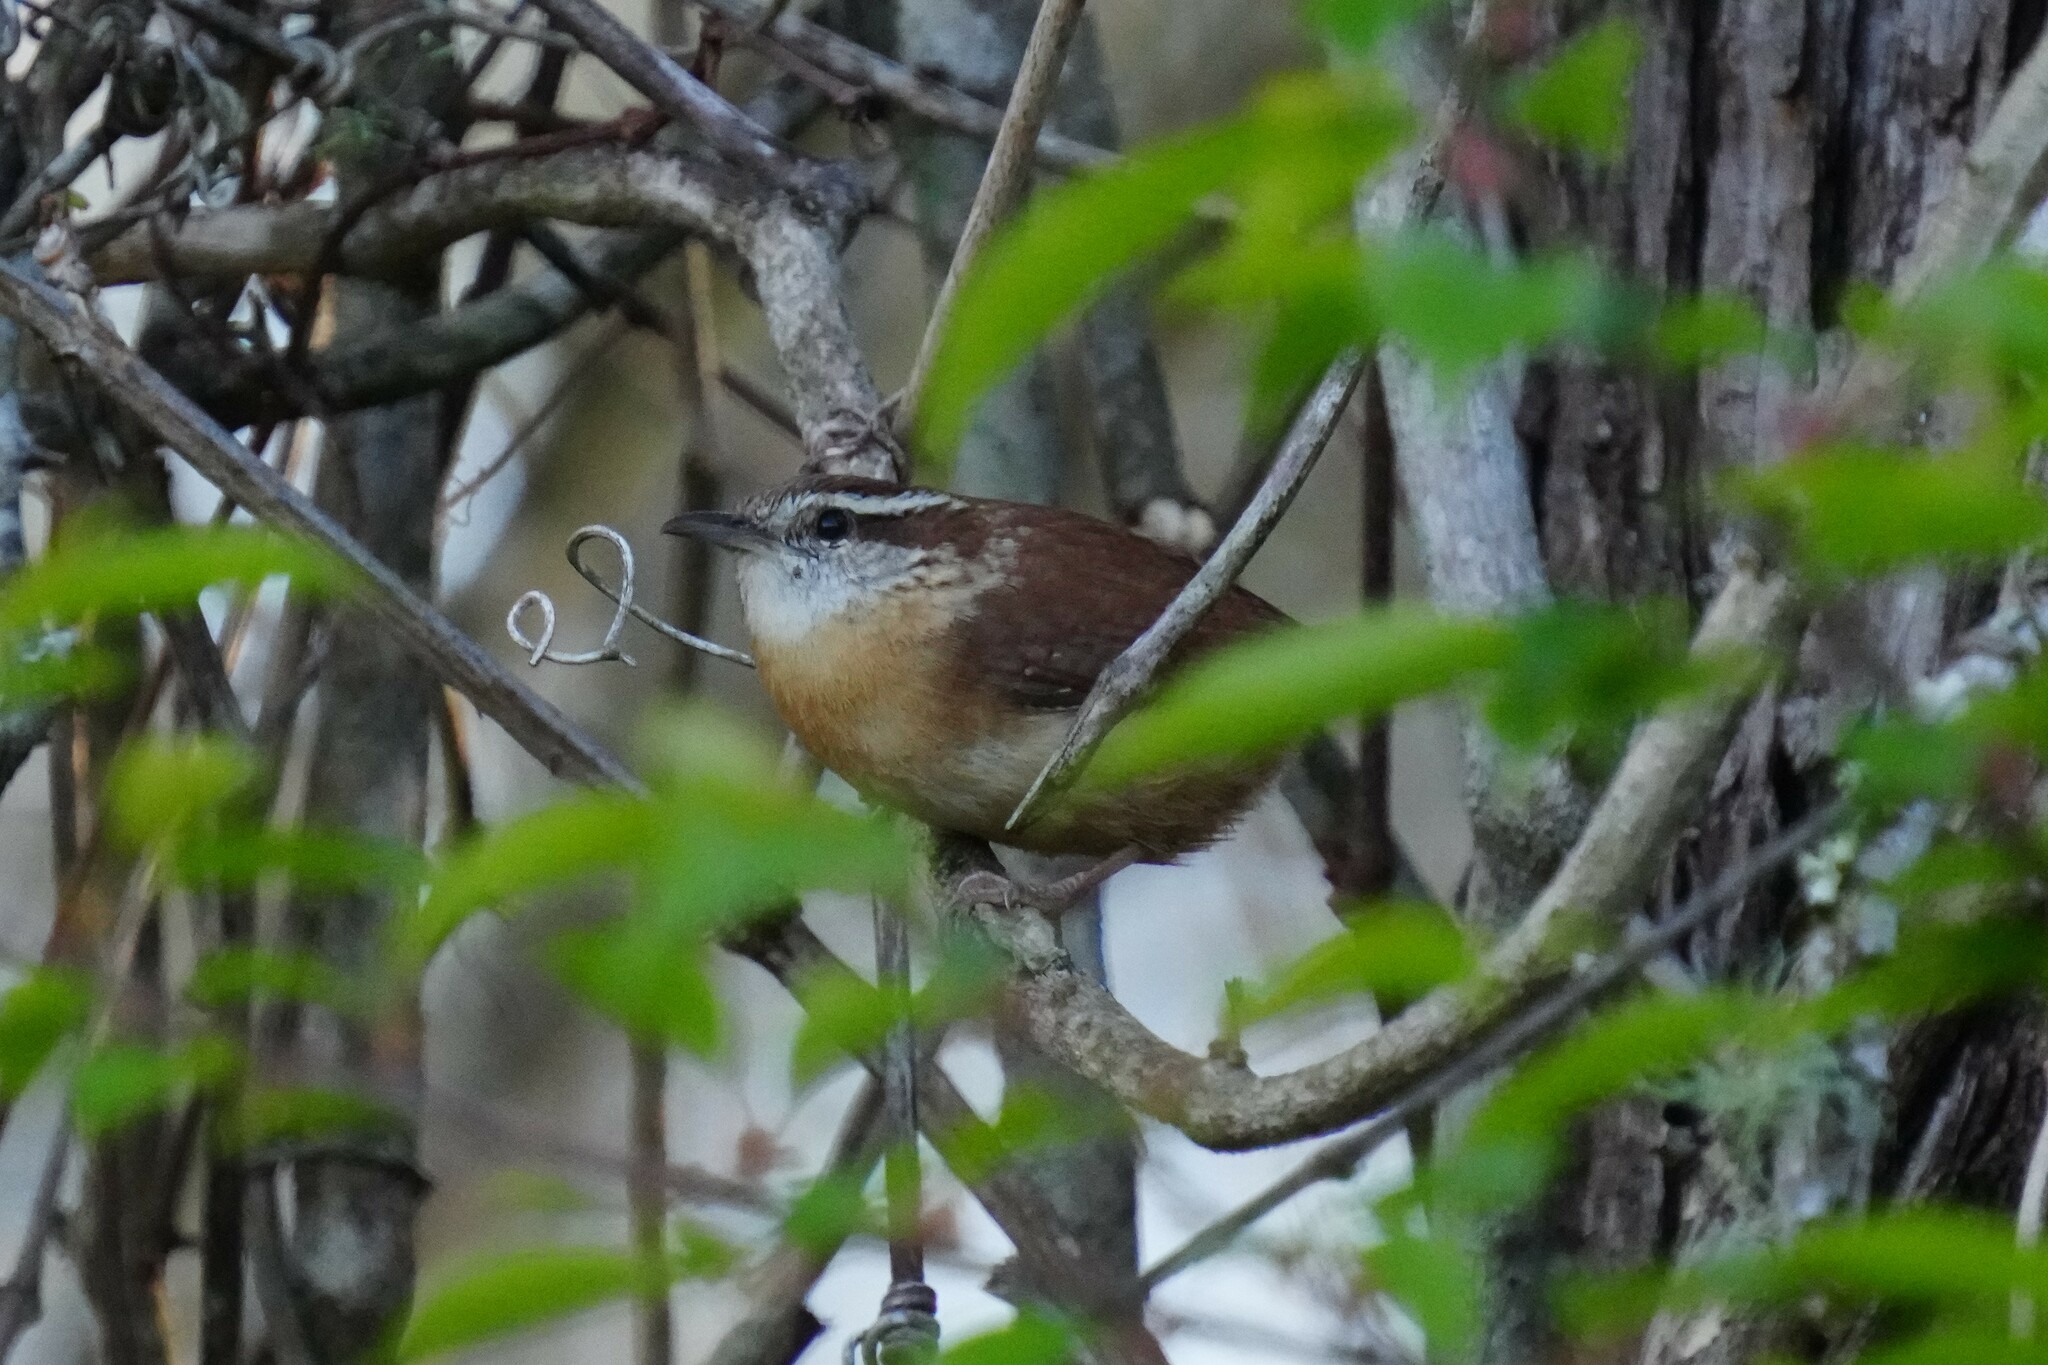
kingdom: Animalia
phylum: Chordata
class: Aves
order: Passeriformes
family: Troglodytidae
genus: Thryothorus
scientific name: Thryothorus ludovicianus
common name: Carolina wren
